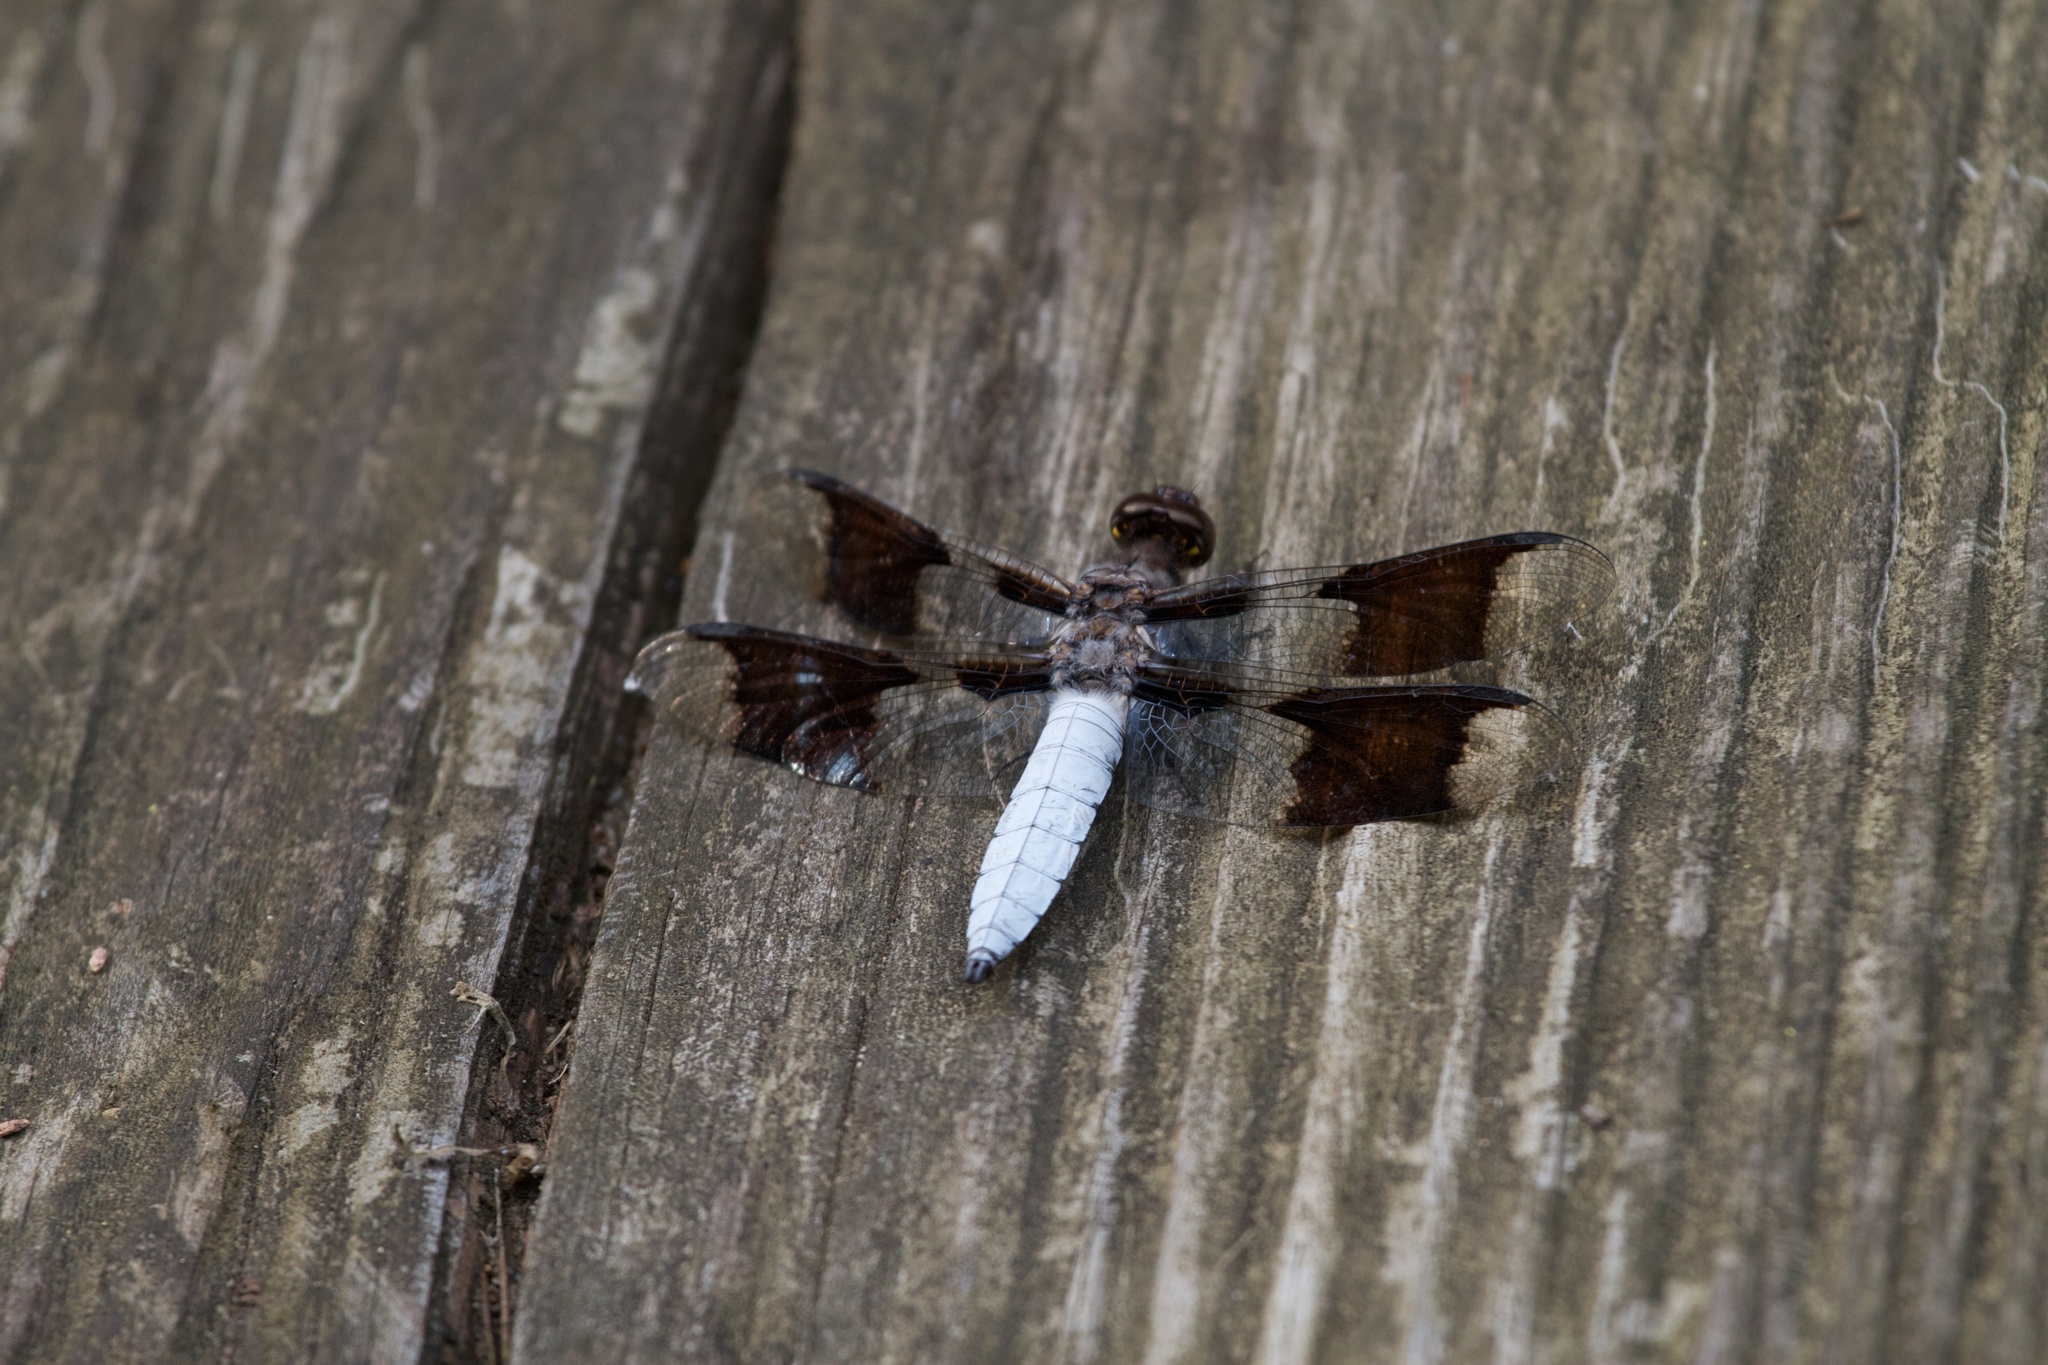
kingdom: Animalia
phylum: Arthropoda
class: Insecta
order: Odonata
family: Libellulidae
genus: Plathemis
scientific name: Plathemis lydia
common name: Common whitetail
